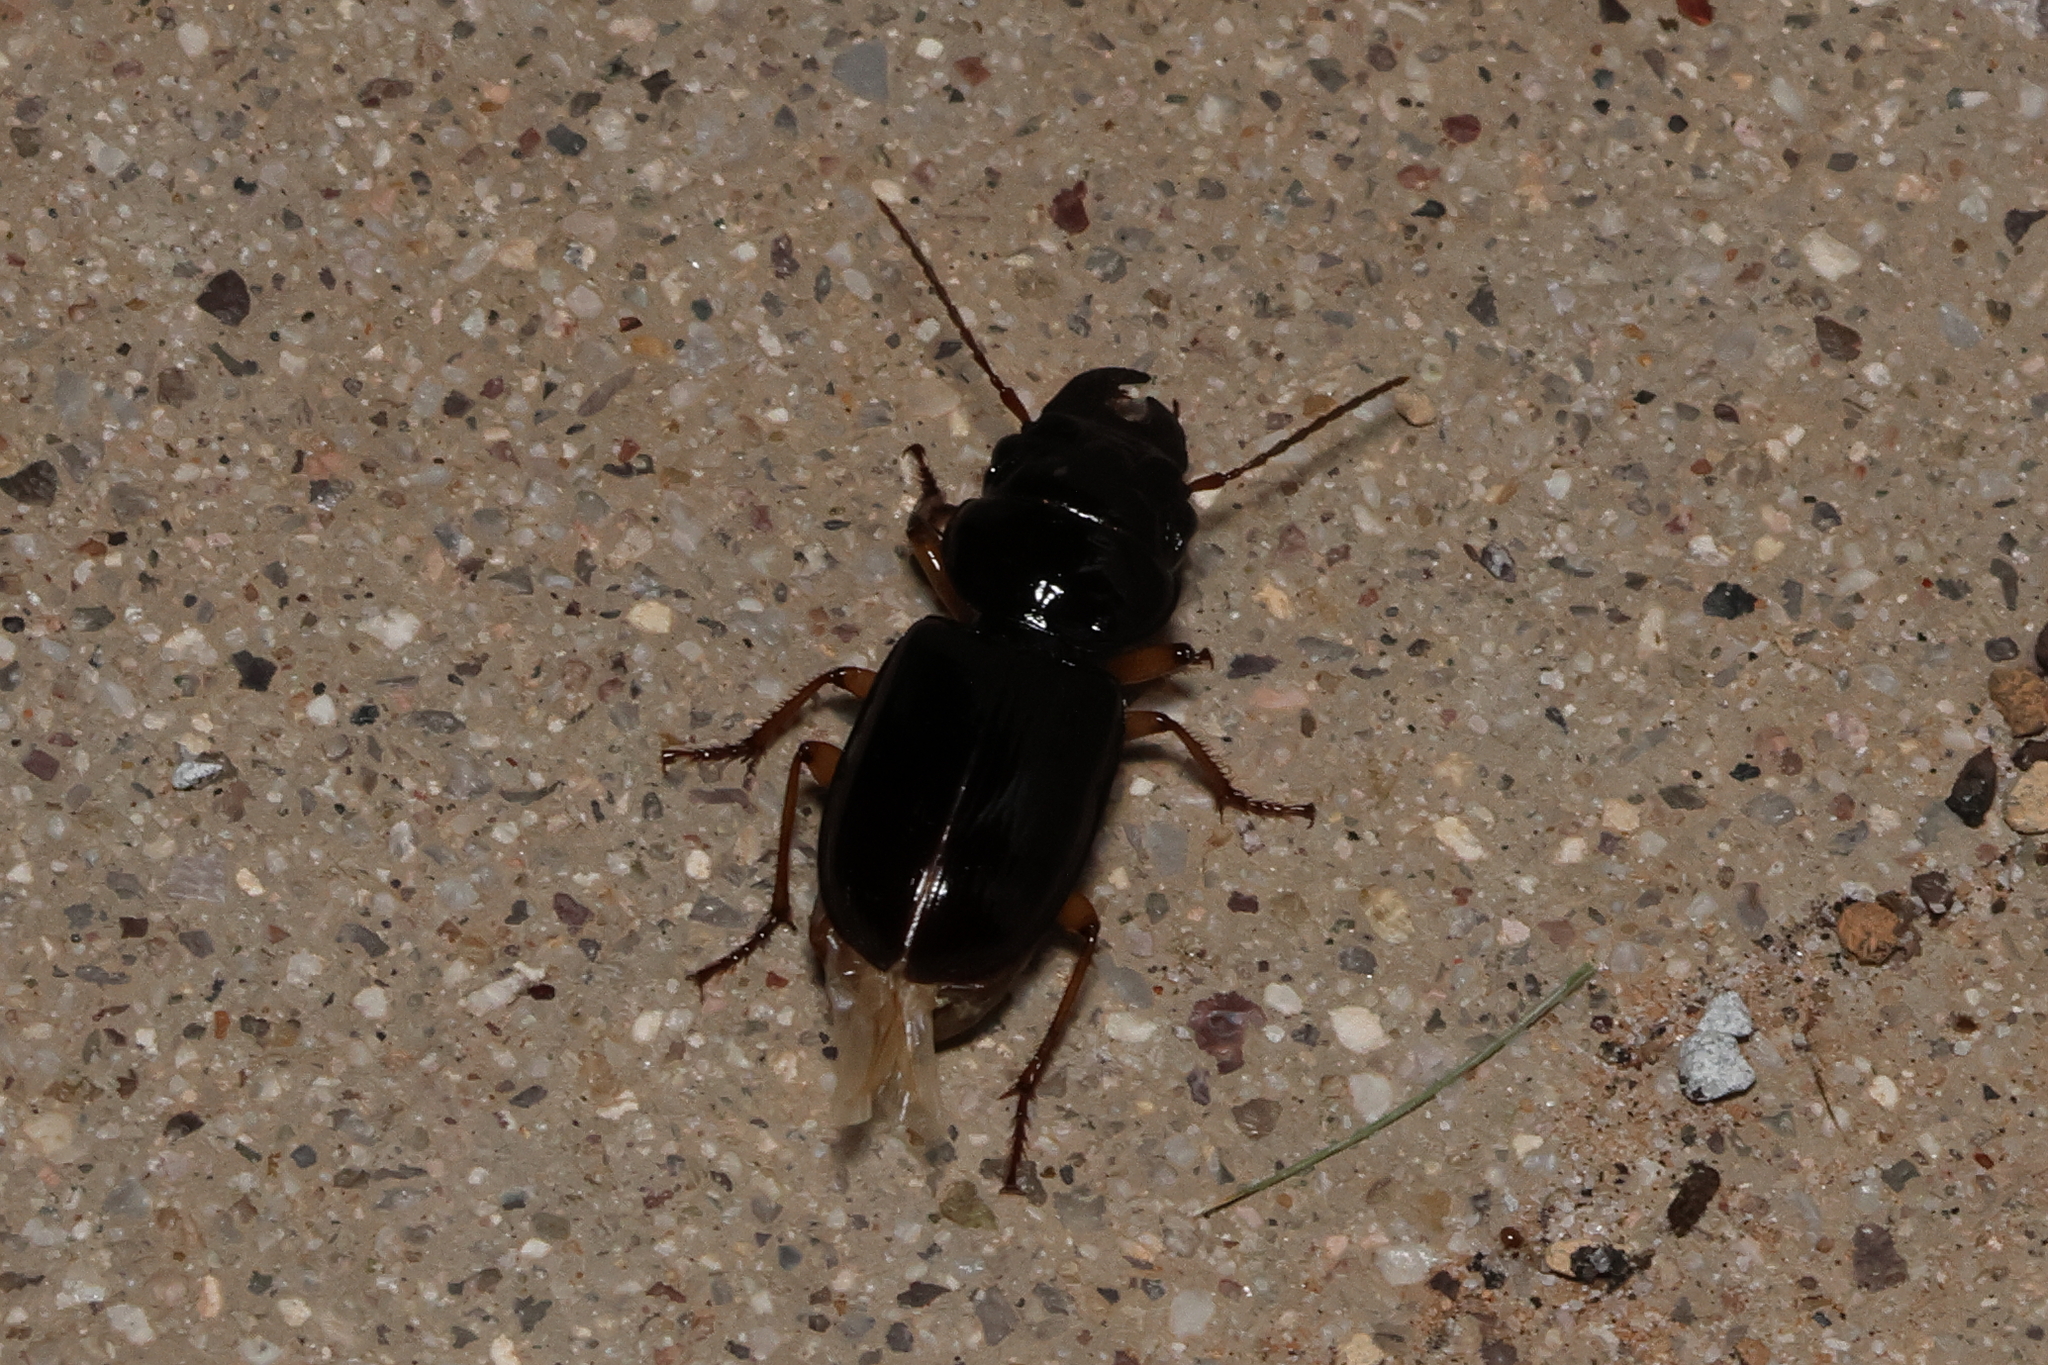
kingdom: Animalia
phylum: Arthropoda
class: Insecta
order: Coleoptera
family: Carabidae
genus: Polpochila
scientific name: Polpochila erro
